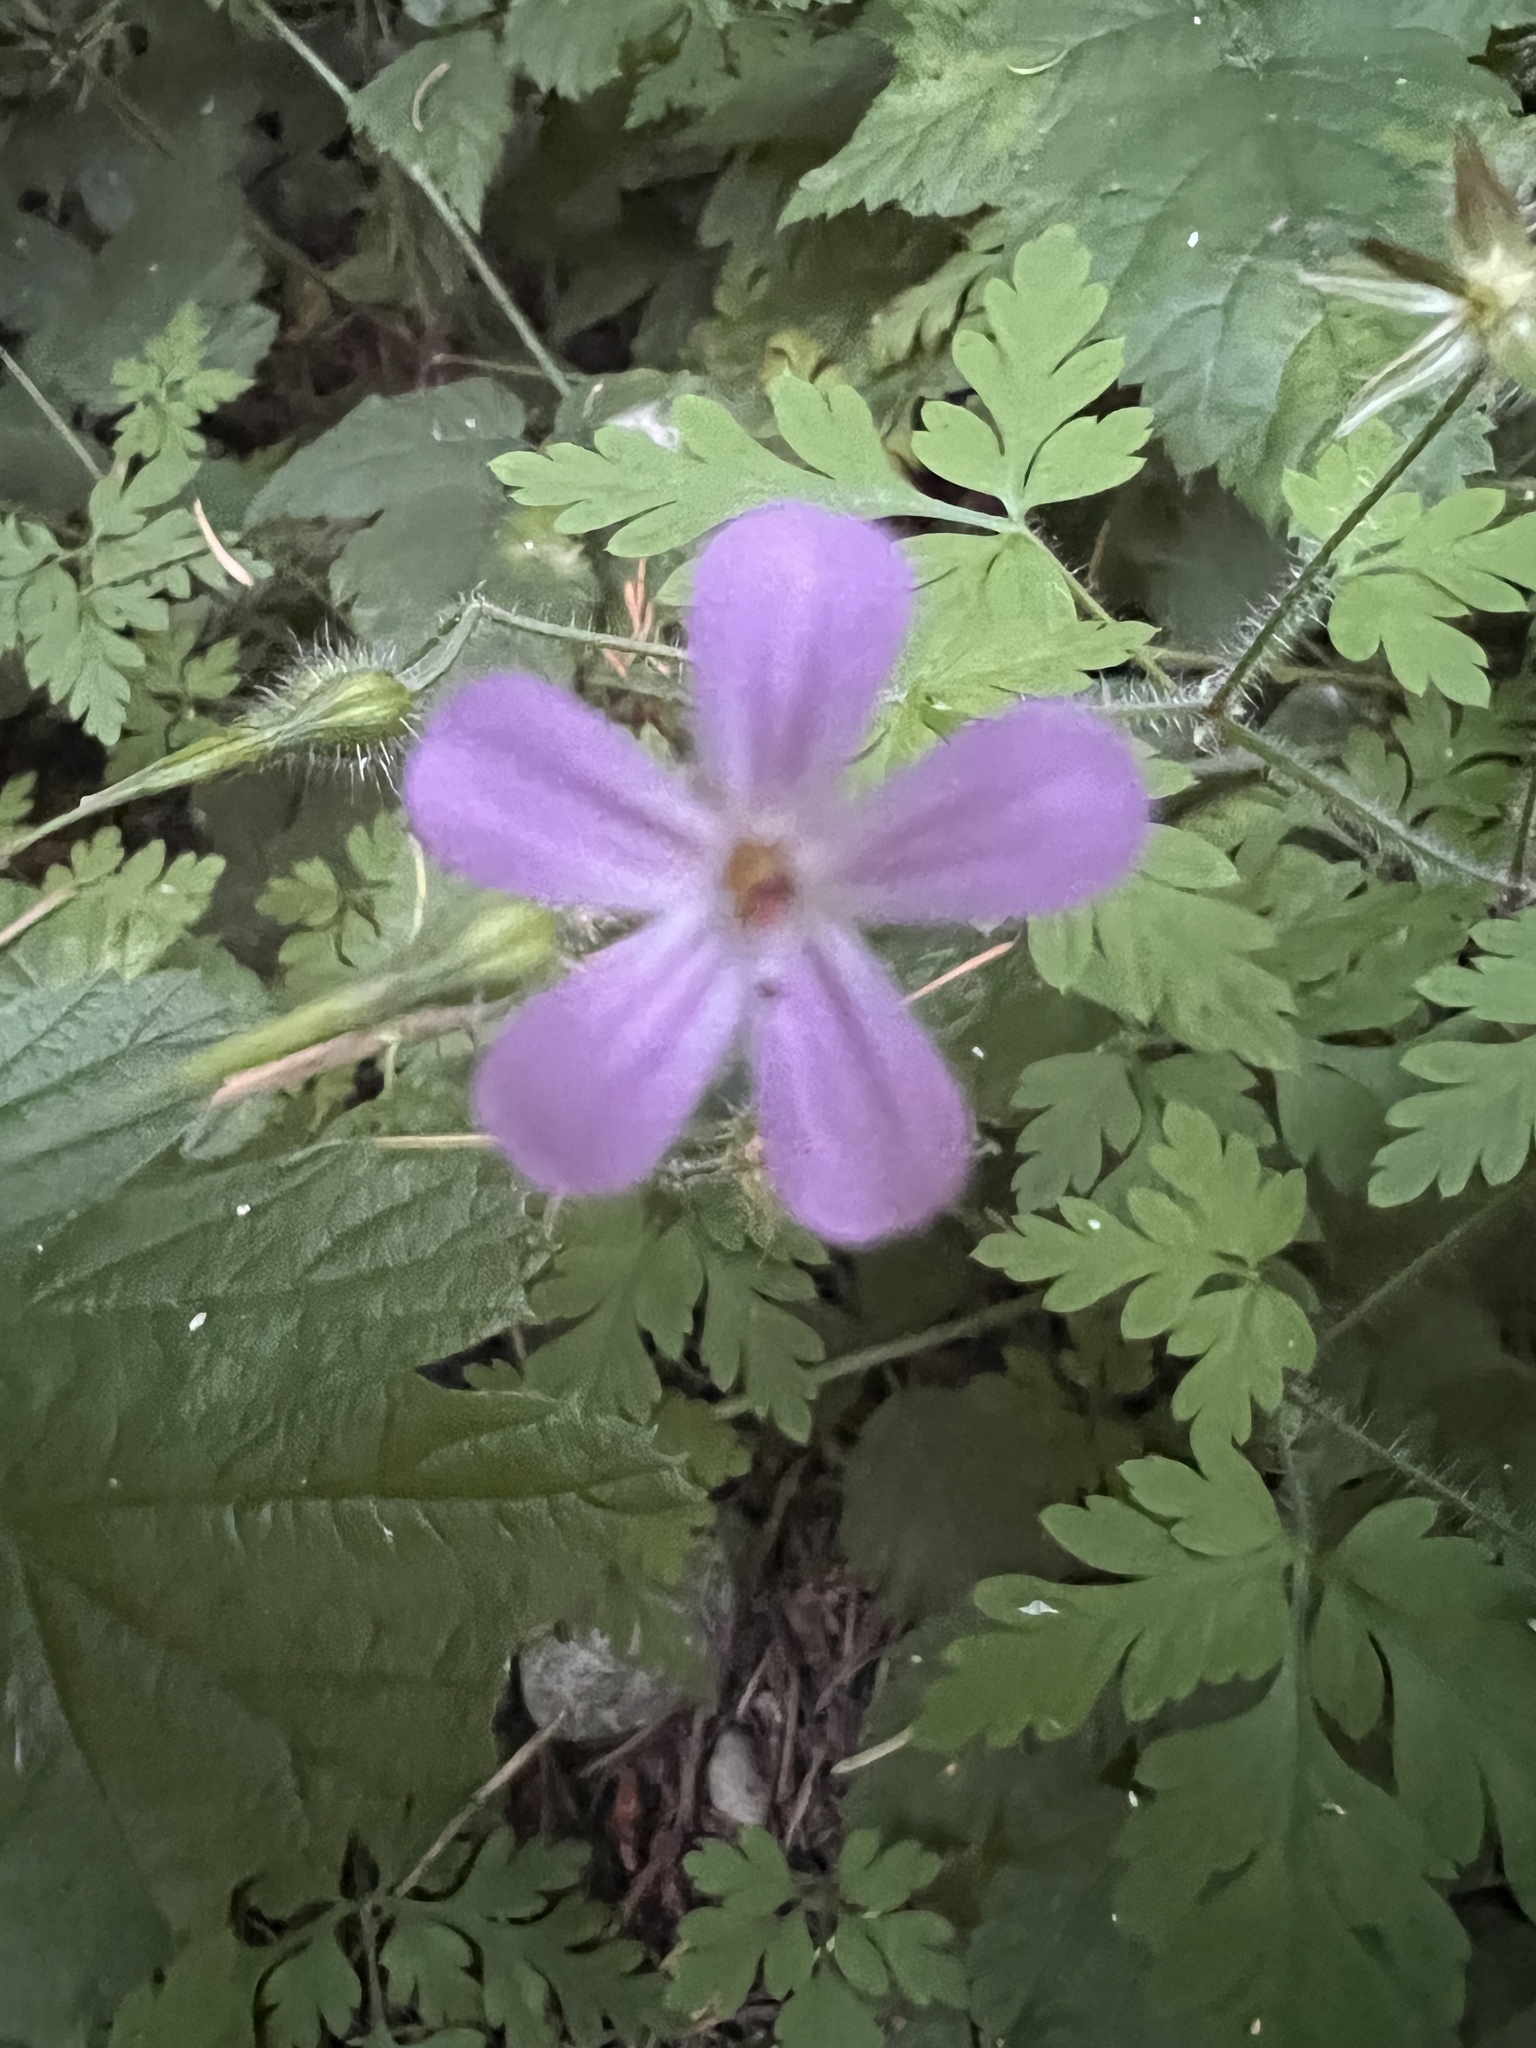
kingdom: Plantae
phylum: Tracheophyta
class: Magnoliopsida
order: Geraniales
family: Geraniaceae
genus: Geranium
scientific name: Geranium robertianum
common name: Herb-robert
